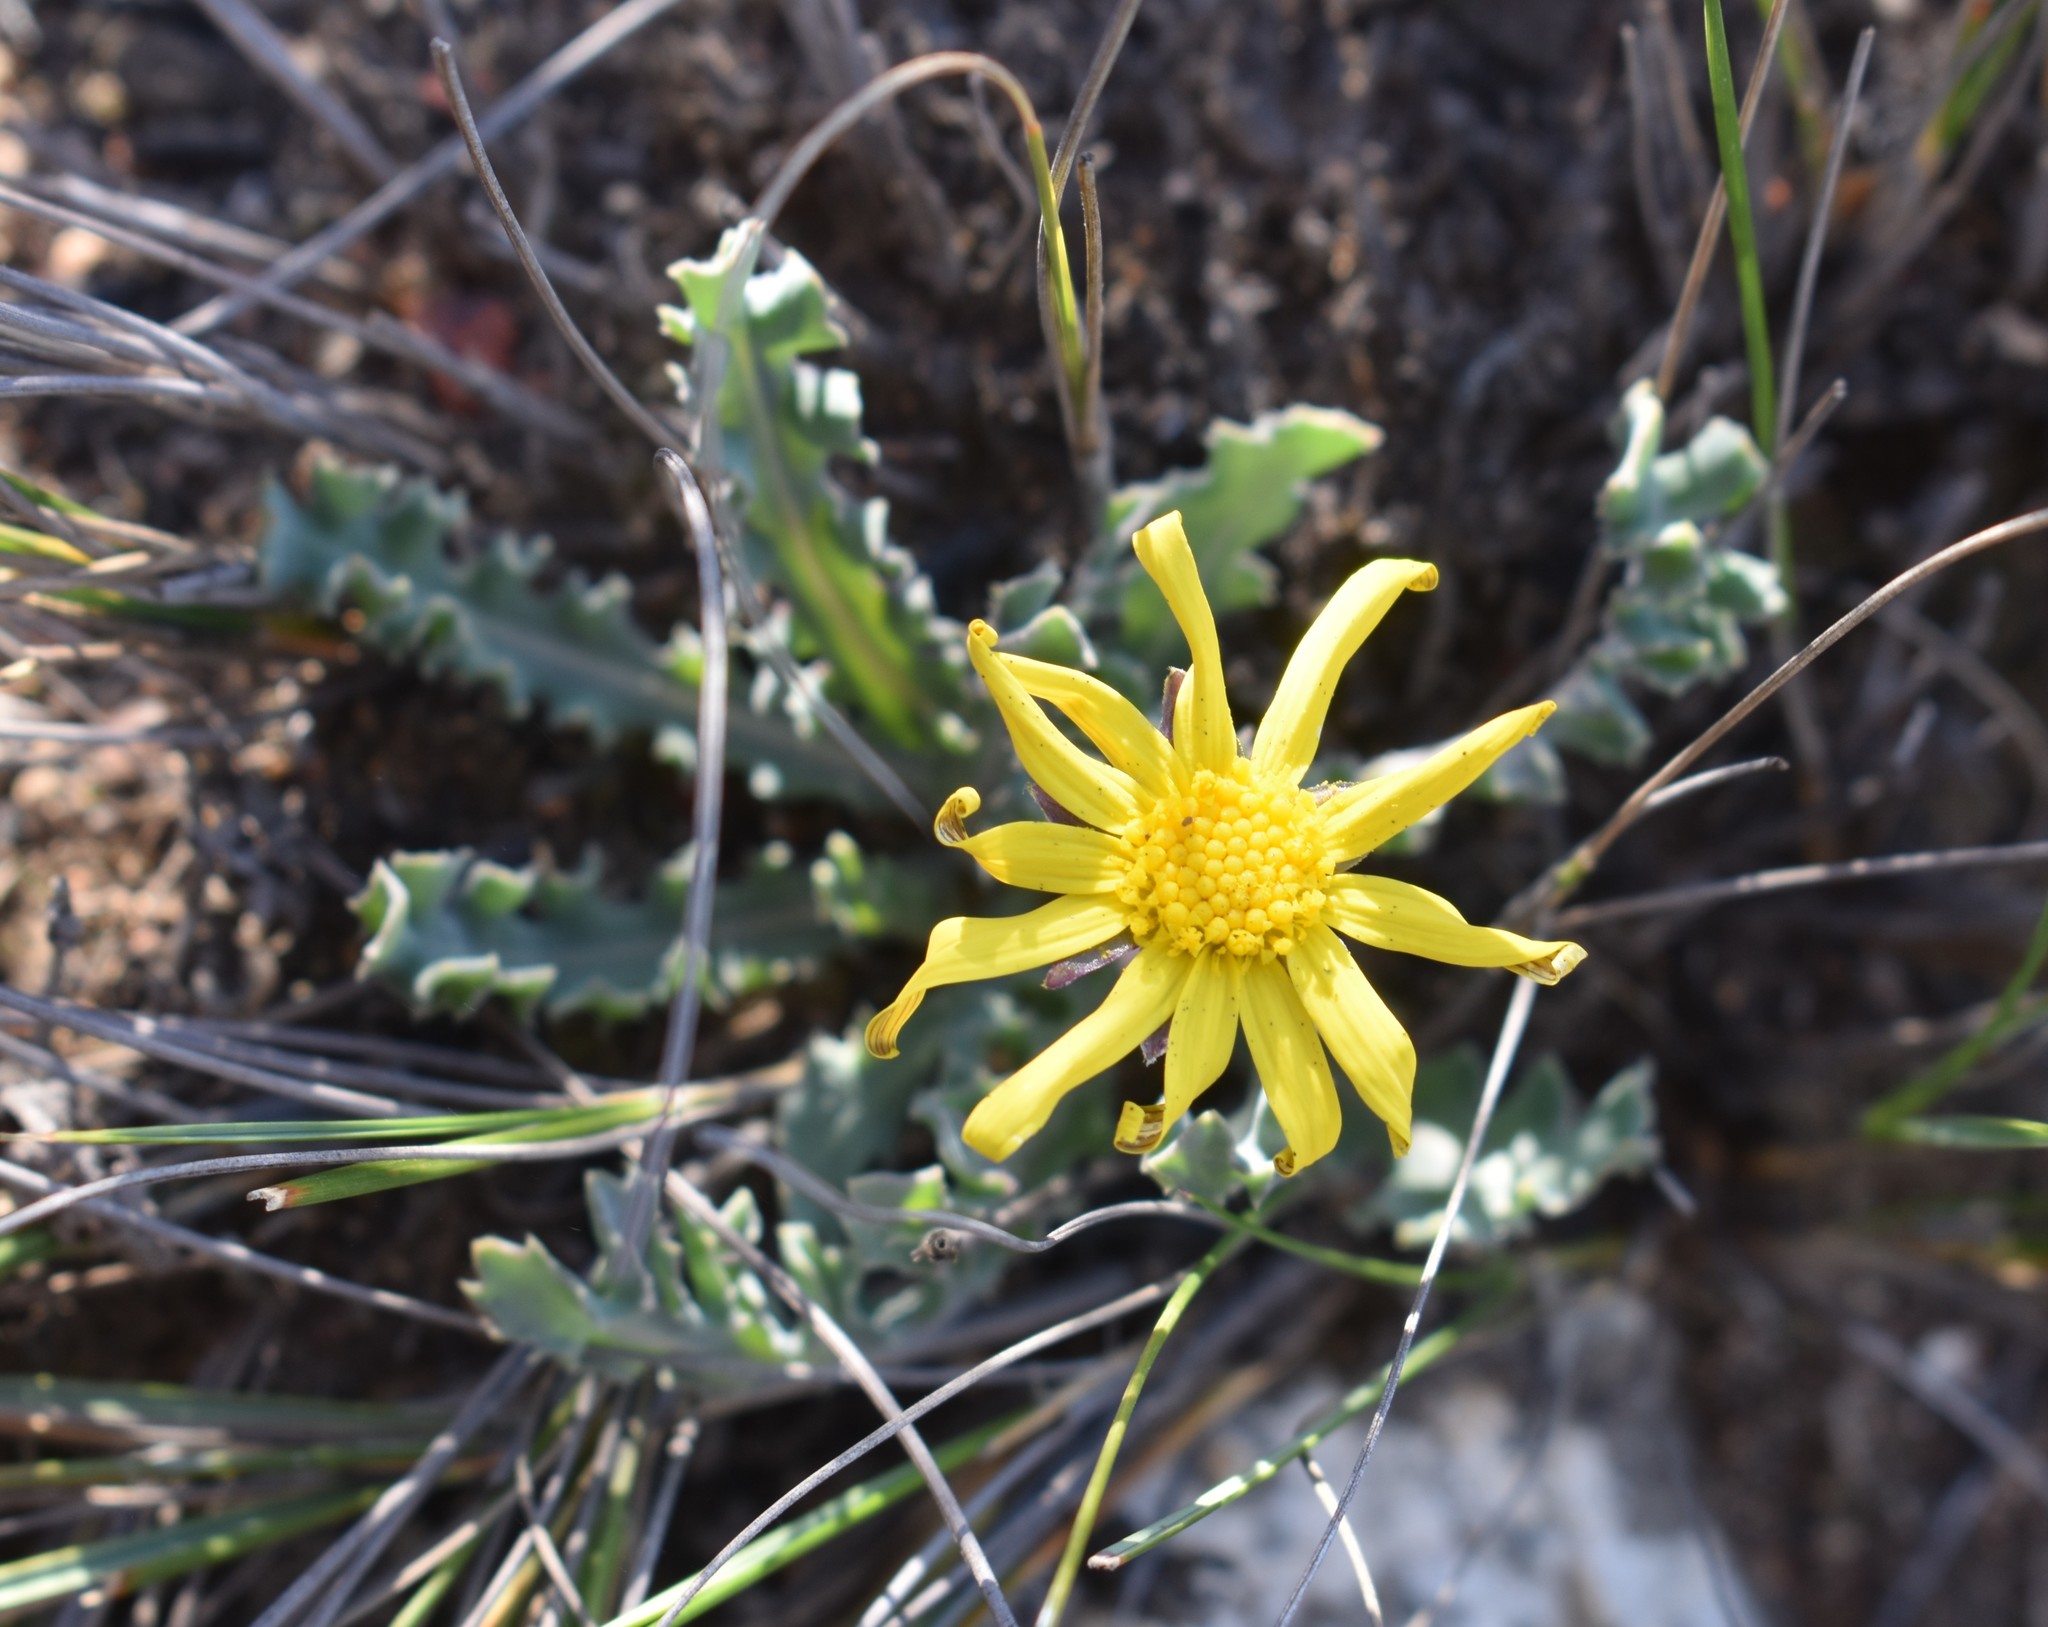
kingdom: Plantae
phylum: Tracheophyta
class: Magnoliopsida
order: Asterales
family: Asteraceae
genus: Othonna
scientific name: Othonna auriculifolia
